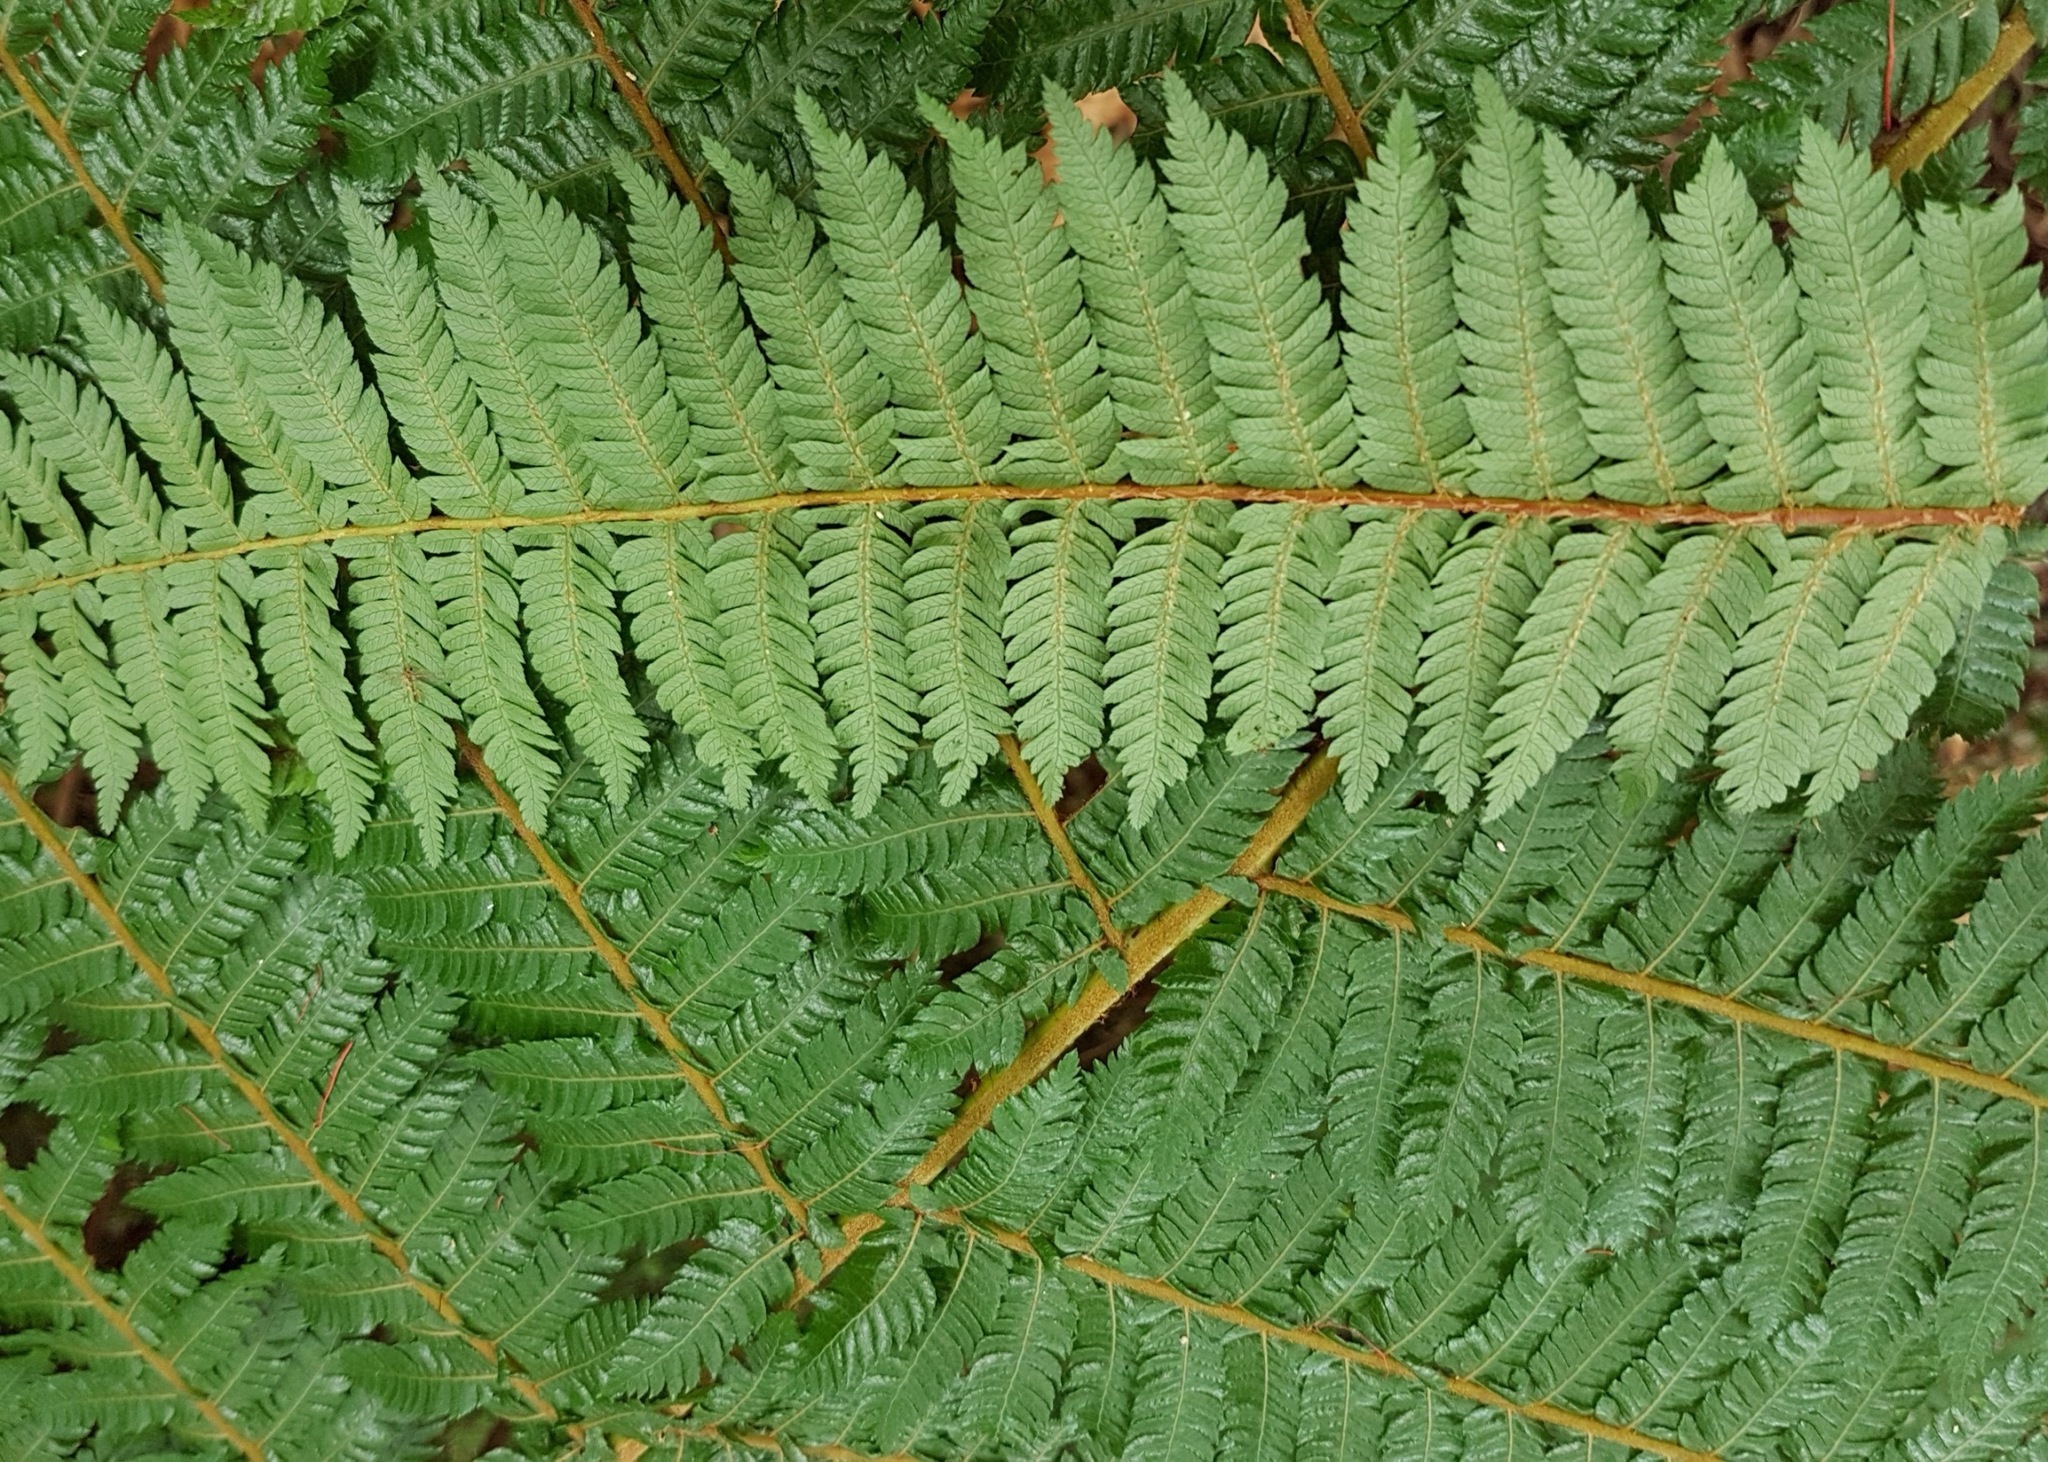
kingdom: Plantae
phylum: Tracheophyta
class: Polypodiopsida
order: Cyatheales
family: Cyatheaceae
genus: Alsophila
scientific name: Alsophila smithii
